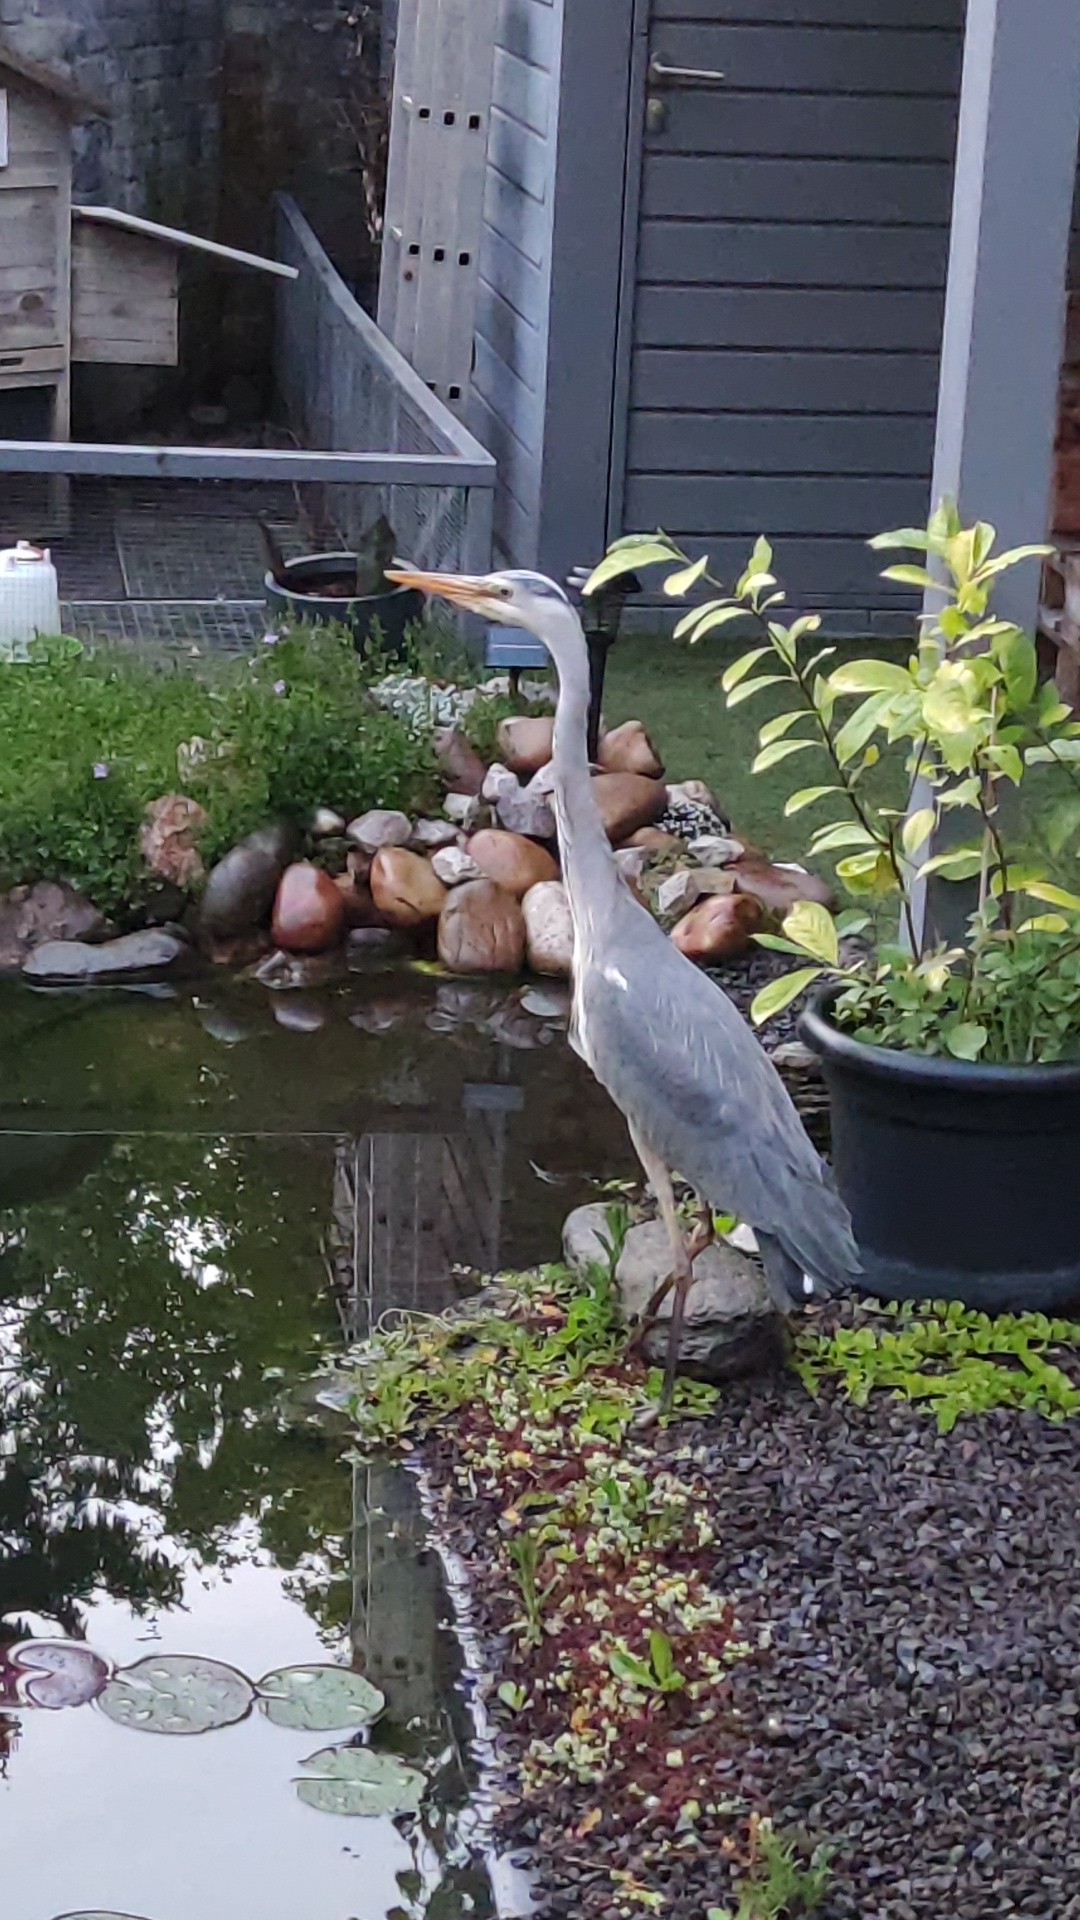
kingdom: Animalia
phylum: Chordata
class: Aves
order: Pelecaniformes
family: Ardeidae
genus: Ardea
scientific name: Ardea cinerea
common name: Grey heron
